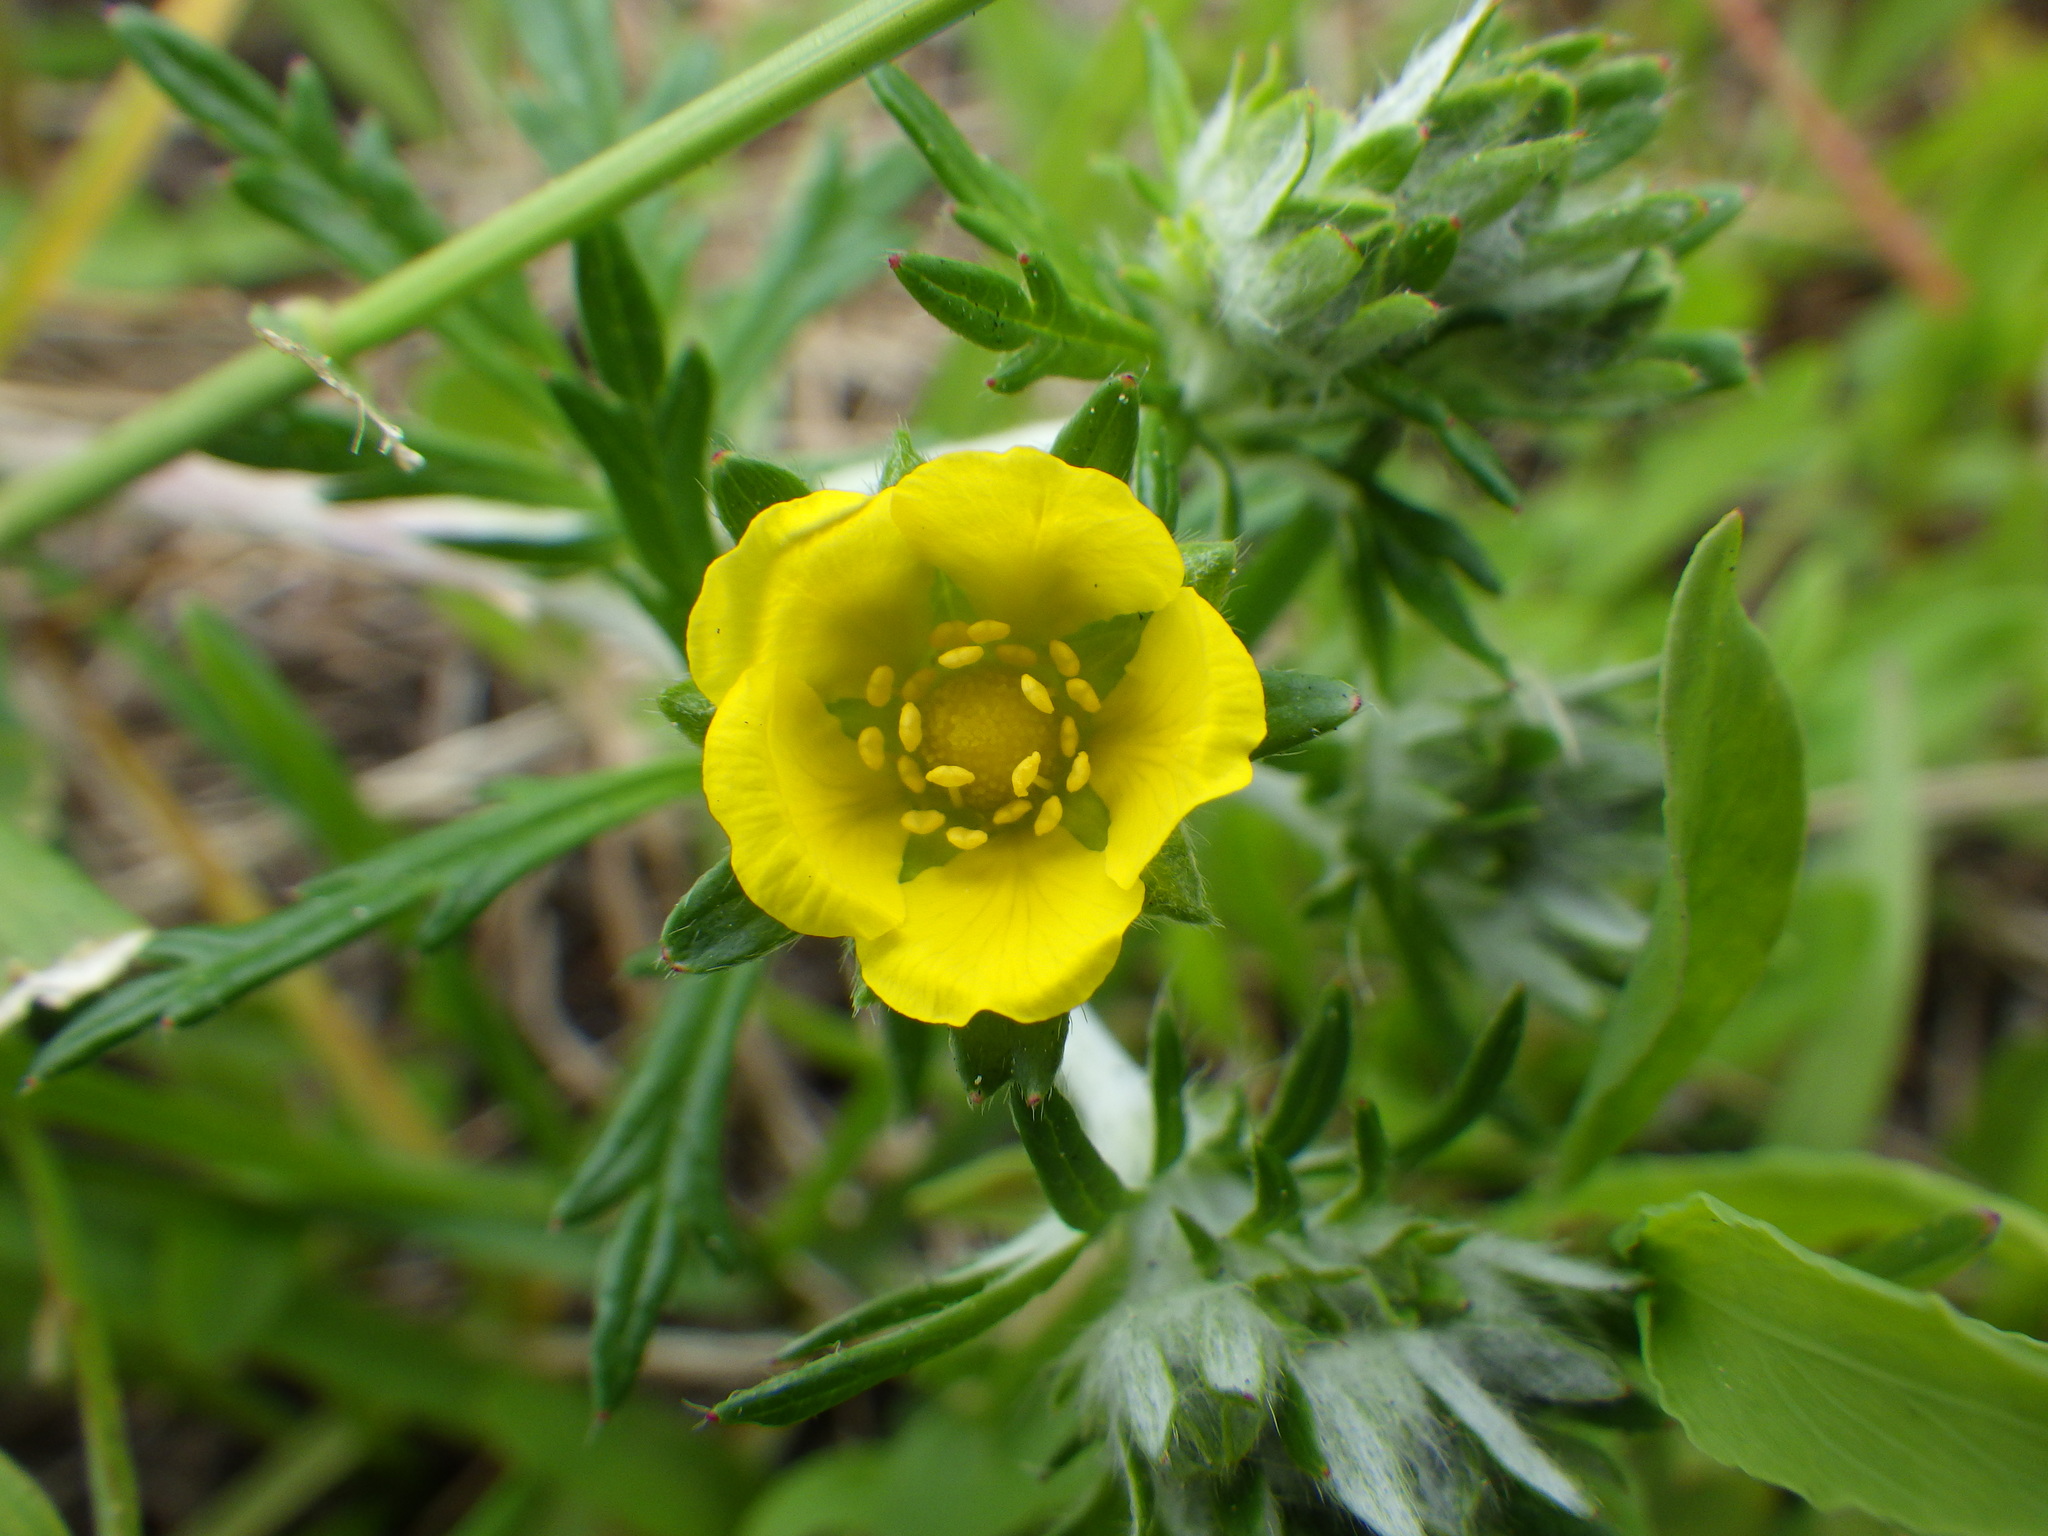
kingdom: Plantae
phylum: Tracheophyta
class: Magnoliopsida
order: Rosales
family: Rosaceae
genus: Potentilla
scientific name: Potentilla argentea
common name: Hoary cinquefoil
